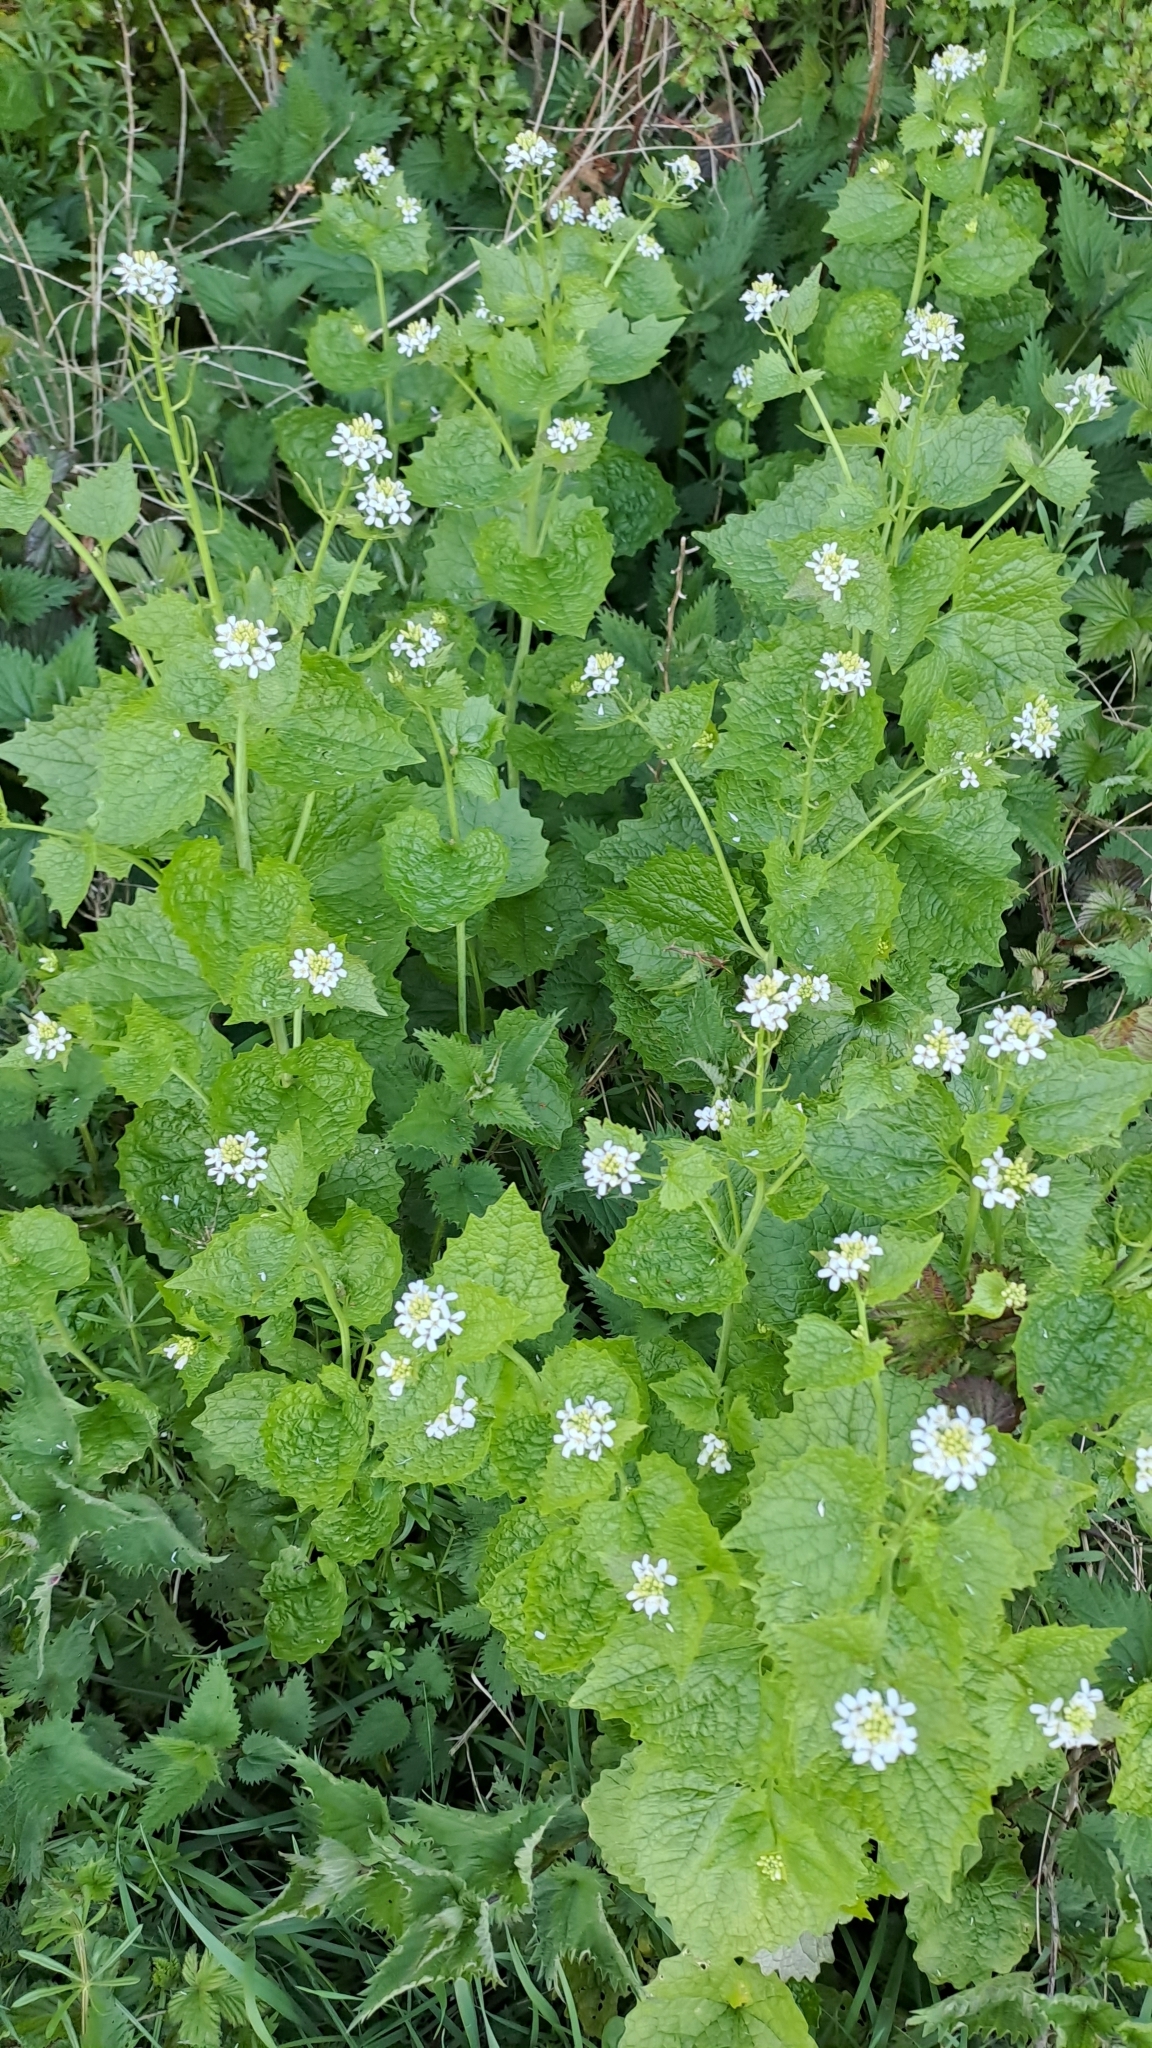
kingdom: Plantae
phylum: Tracheophyta
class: Magnoliopsida
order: Brassicales
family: Brassicaceae
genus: Alliaria
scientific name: Alliaria petiolata
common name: Garlic mustard
